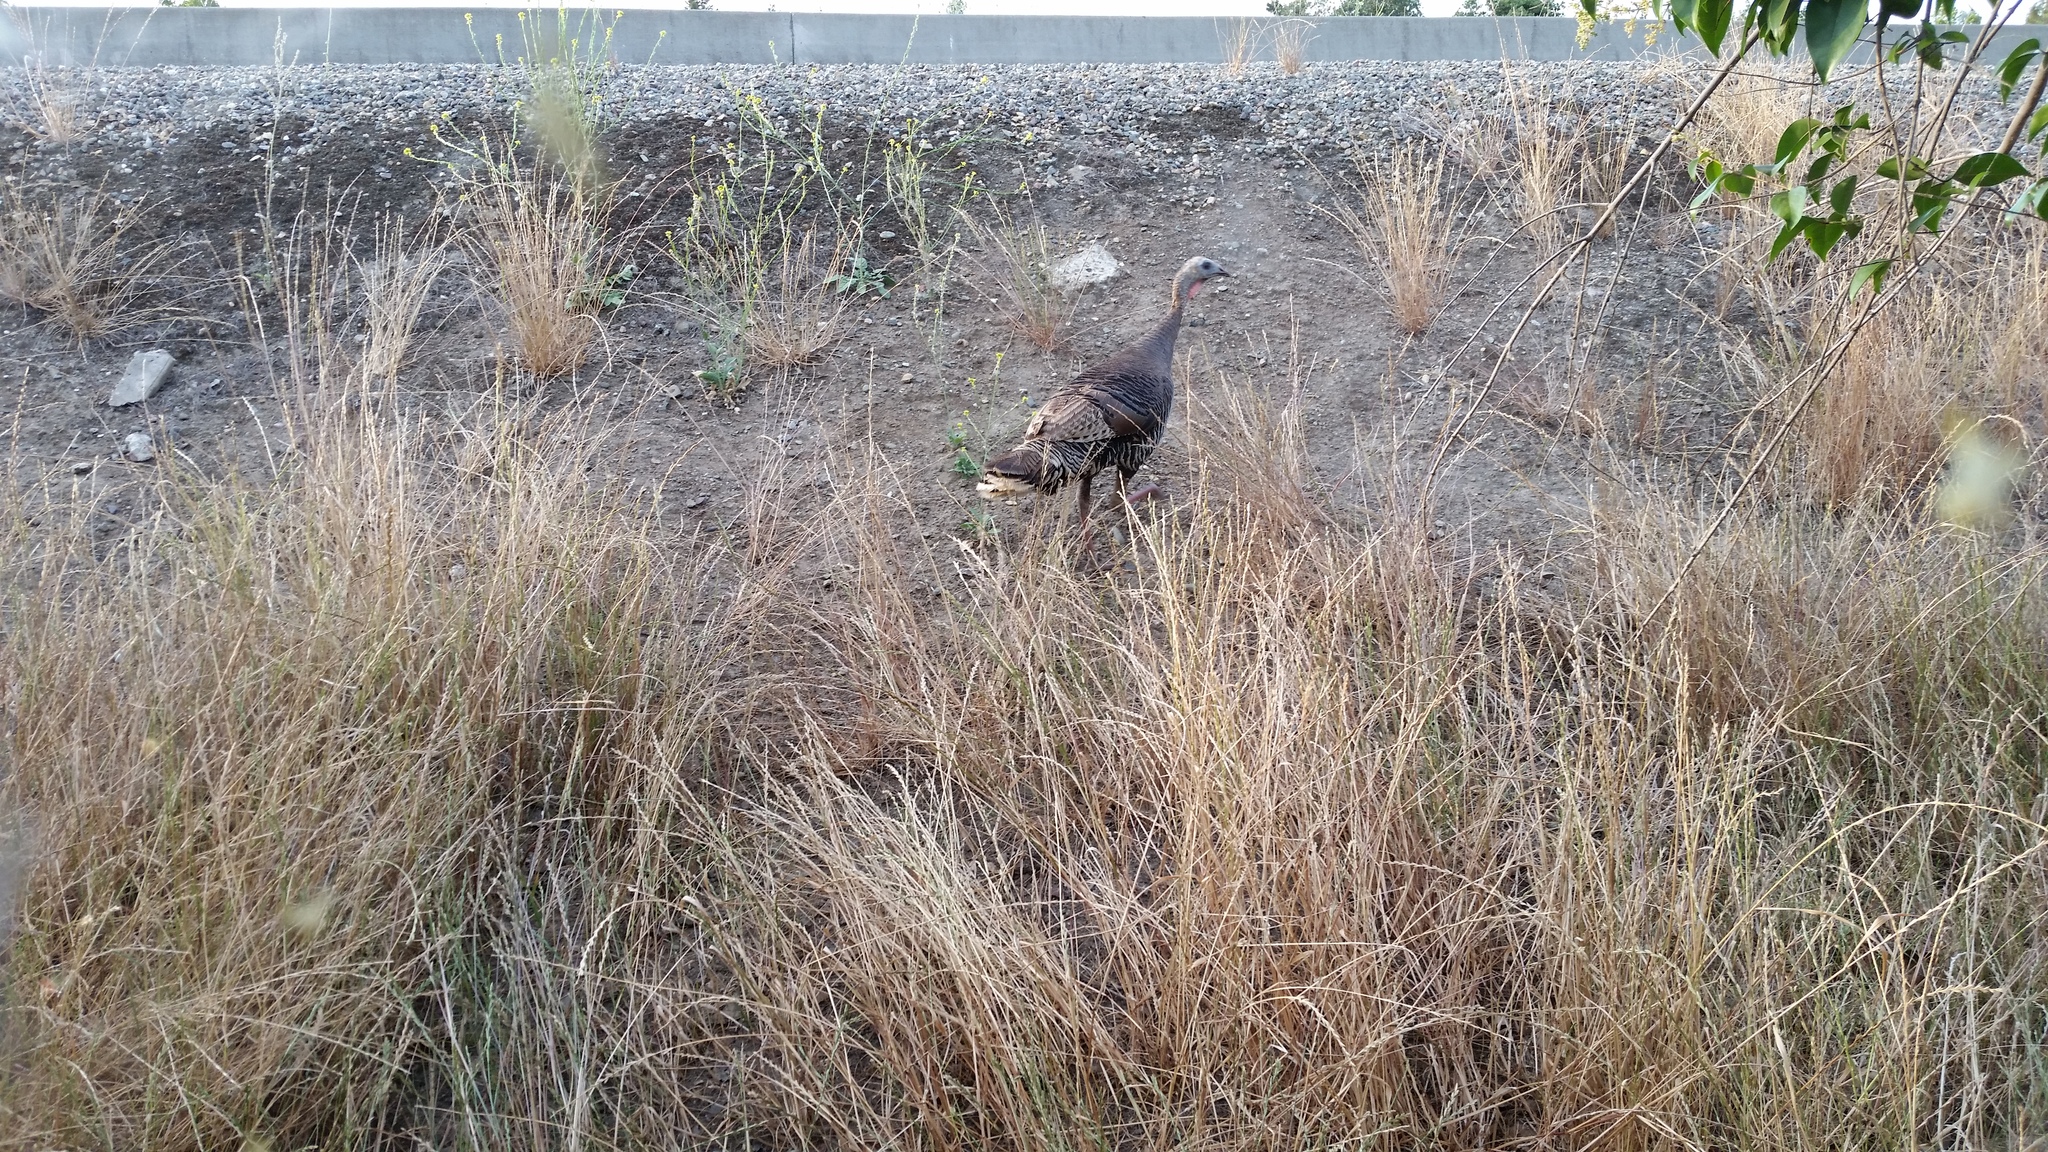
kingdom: Animalia
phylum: Chordata
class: Aves
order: Galliformes
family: Phasianidae
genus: Meleagris
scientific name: Meleagris gallopavo
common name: Wild turkey
